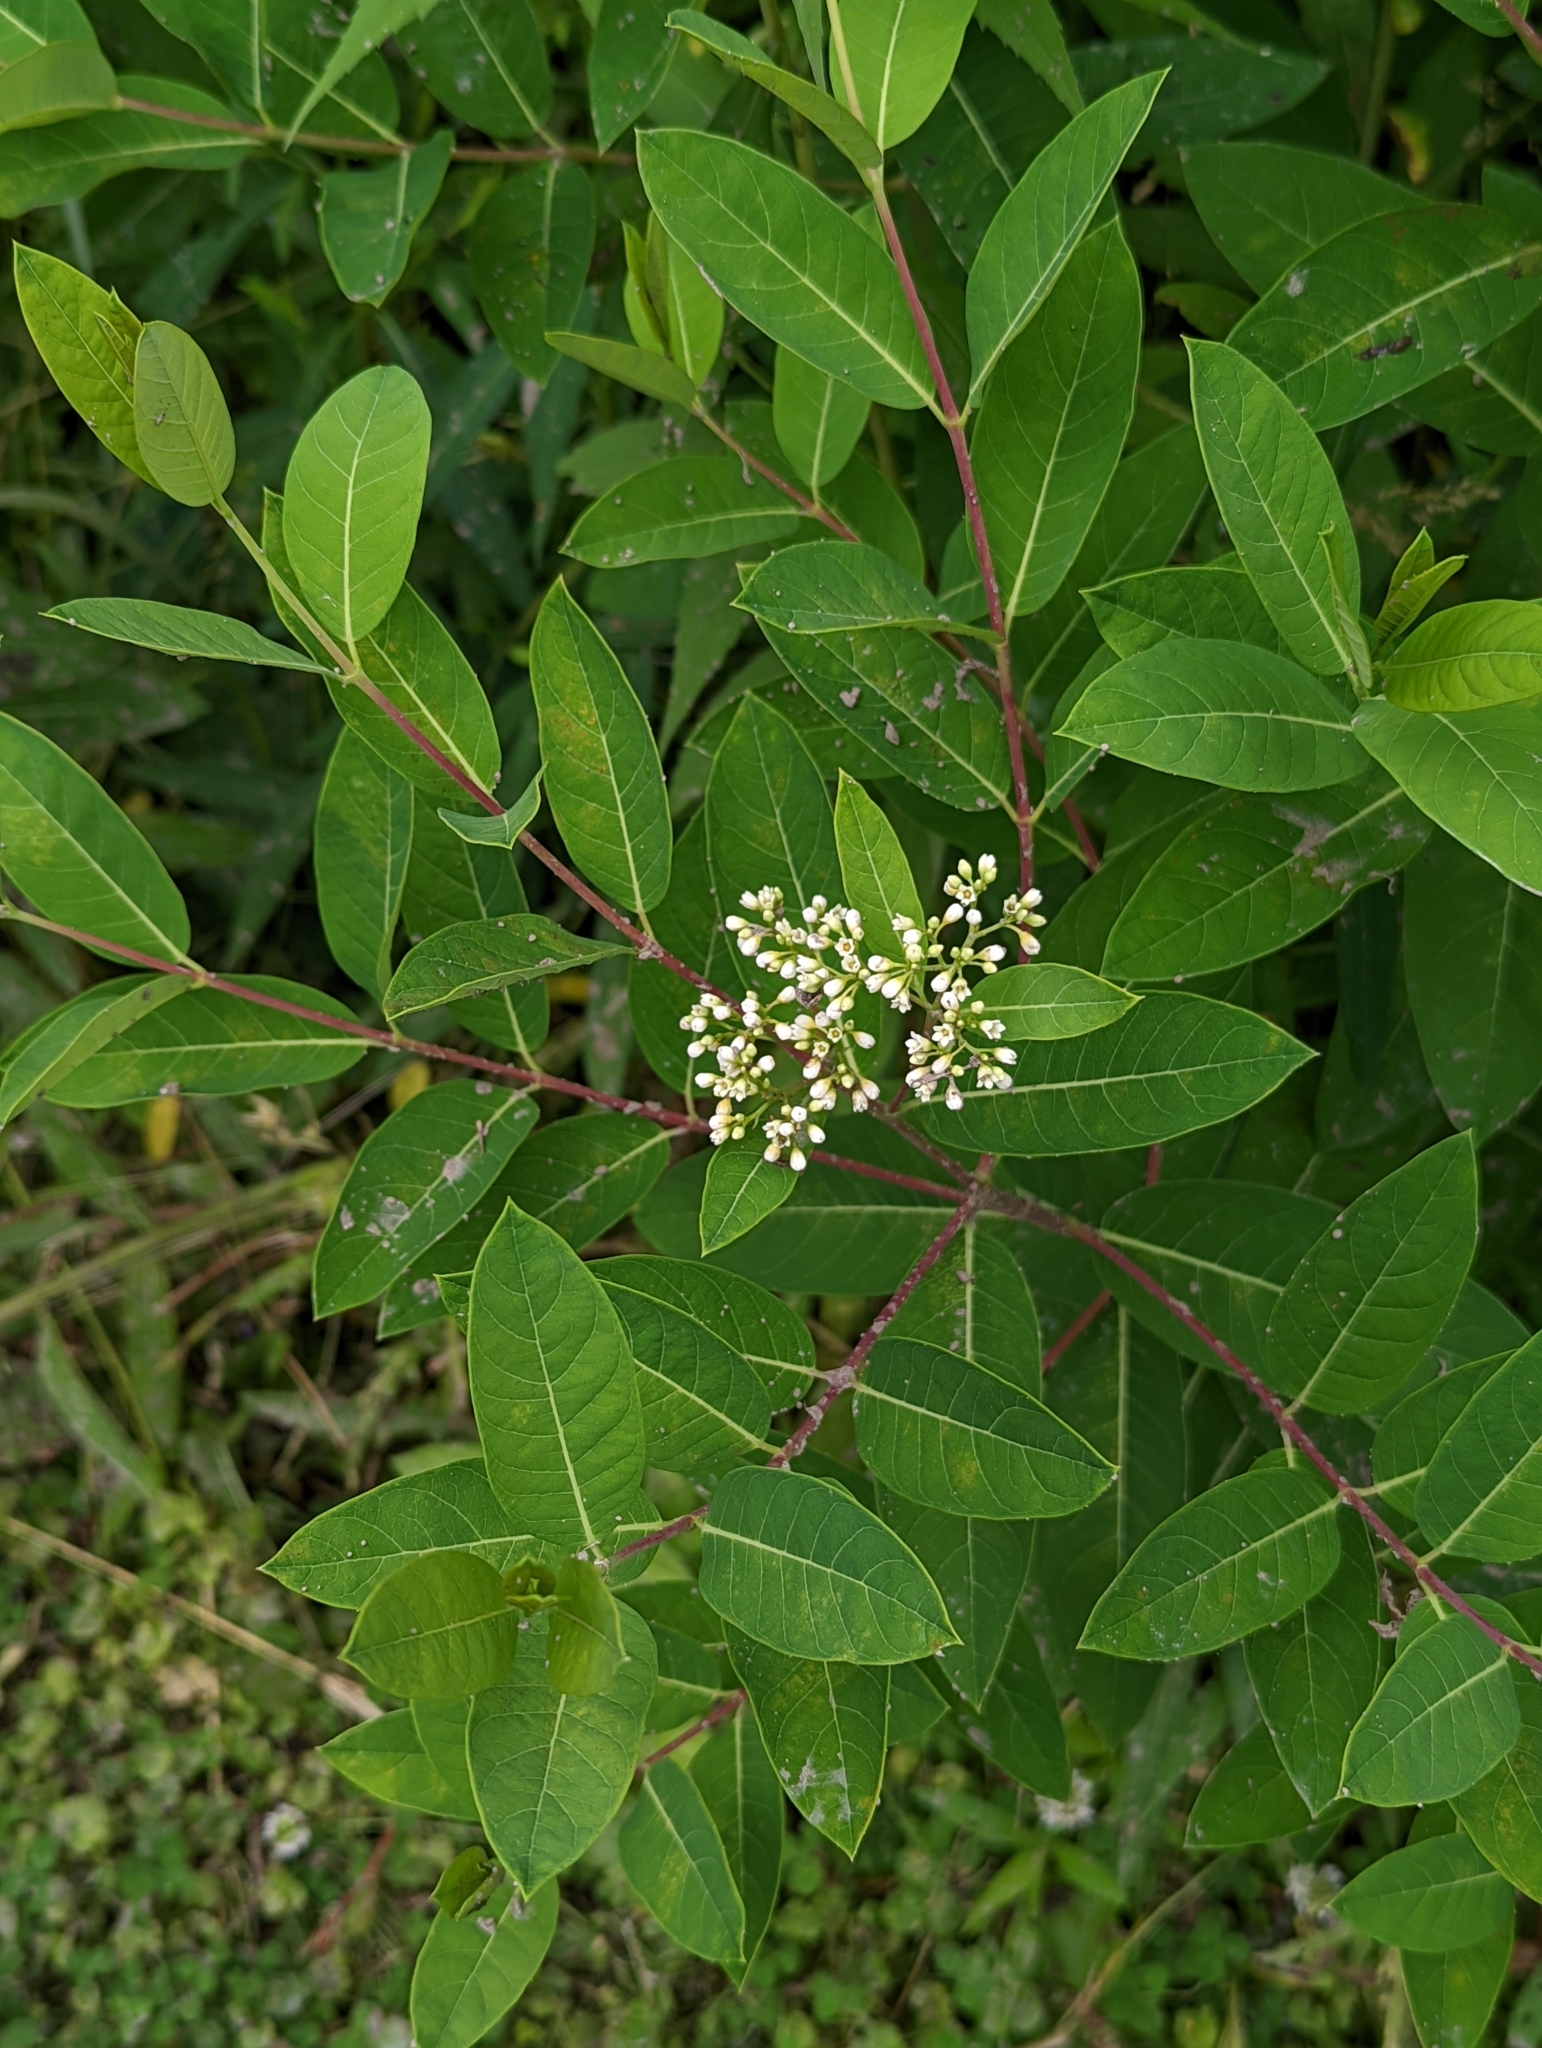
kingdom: Plantae
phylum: Tracheophyta
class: Magnoliopsida
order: Gentianales
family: Apocynaceae
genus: Apocynum
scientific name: Apocynum cannabinum
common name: Hemp dogbane
